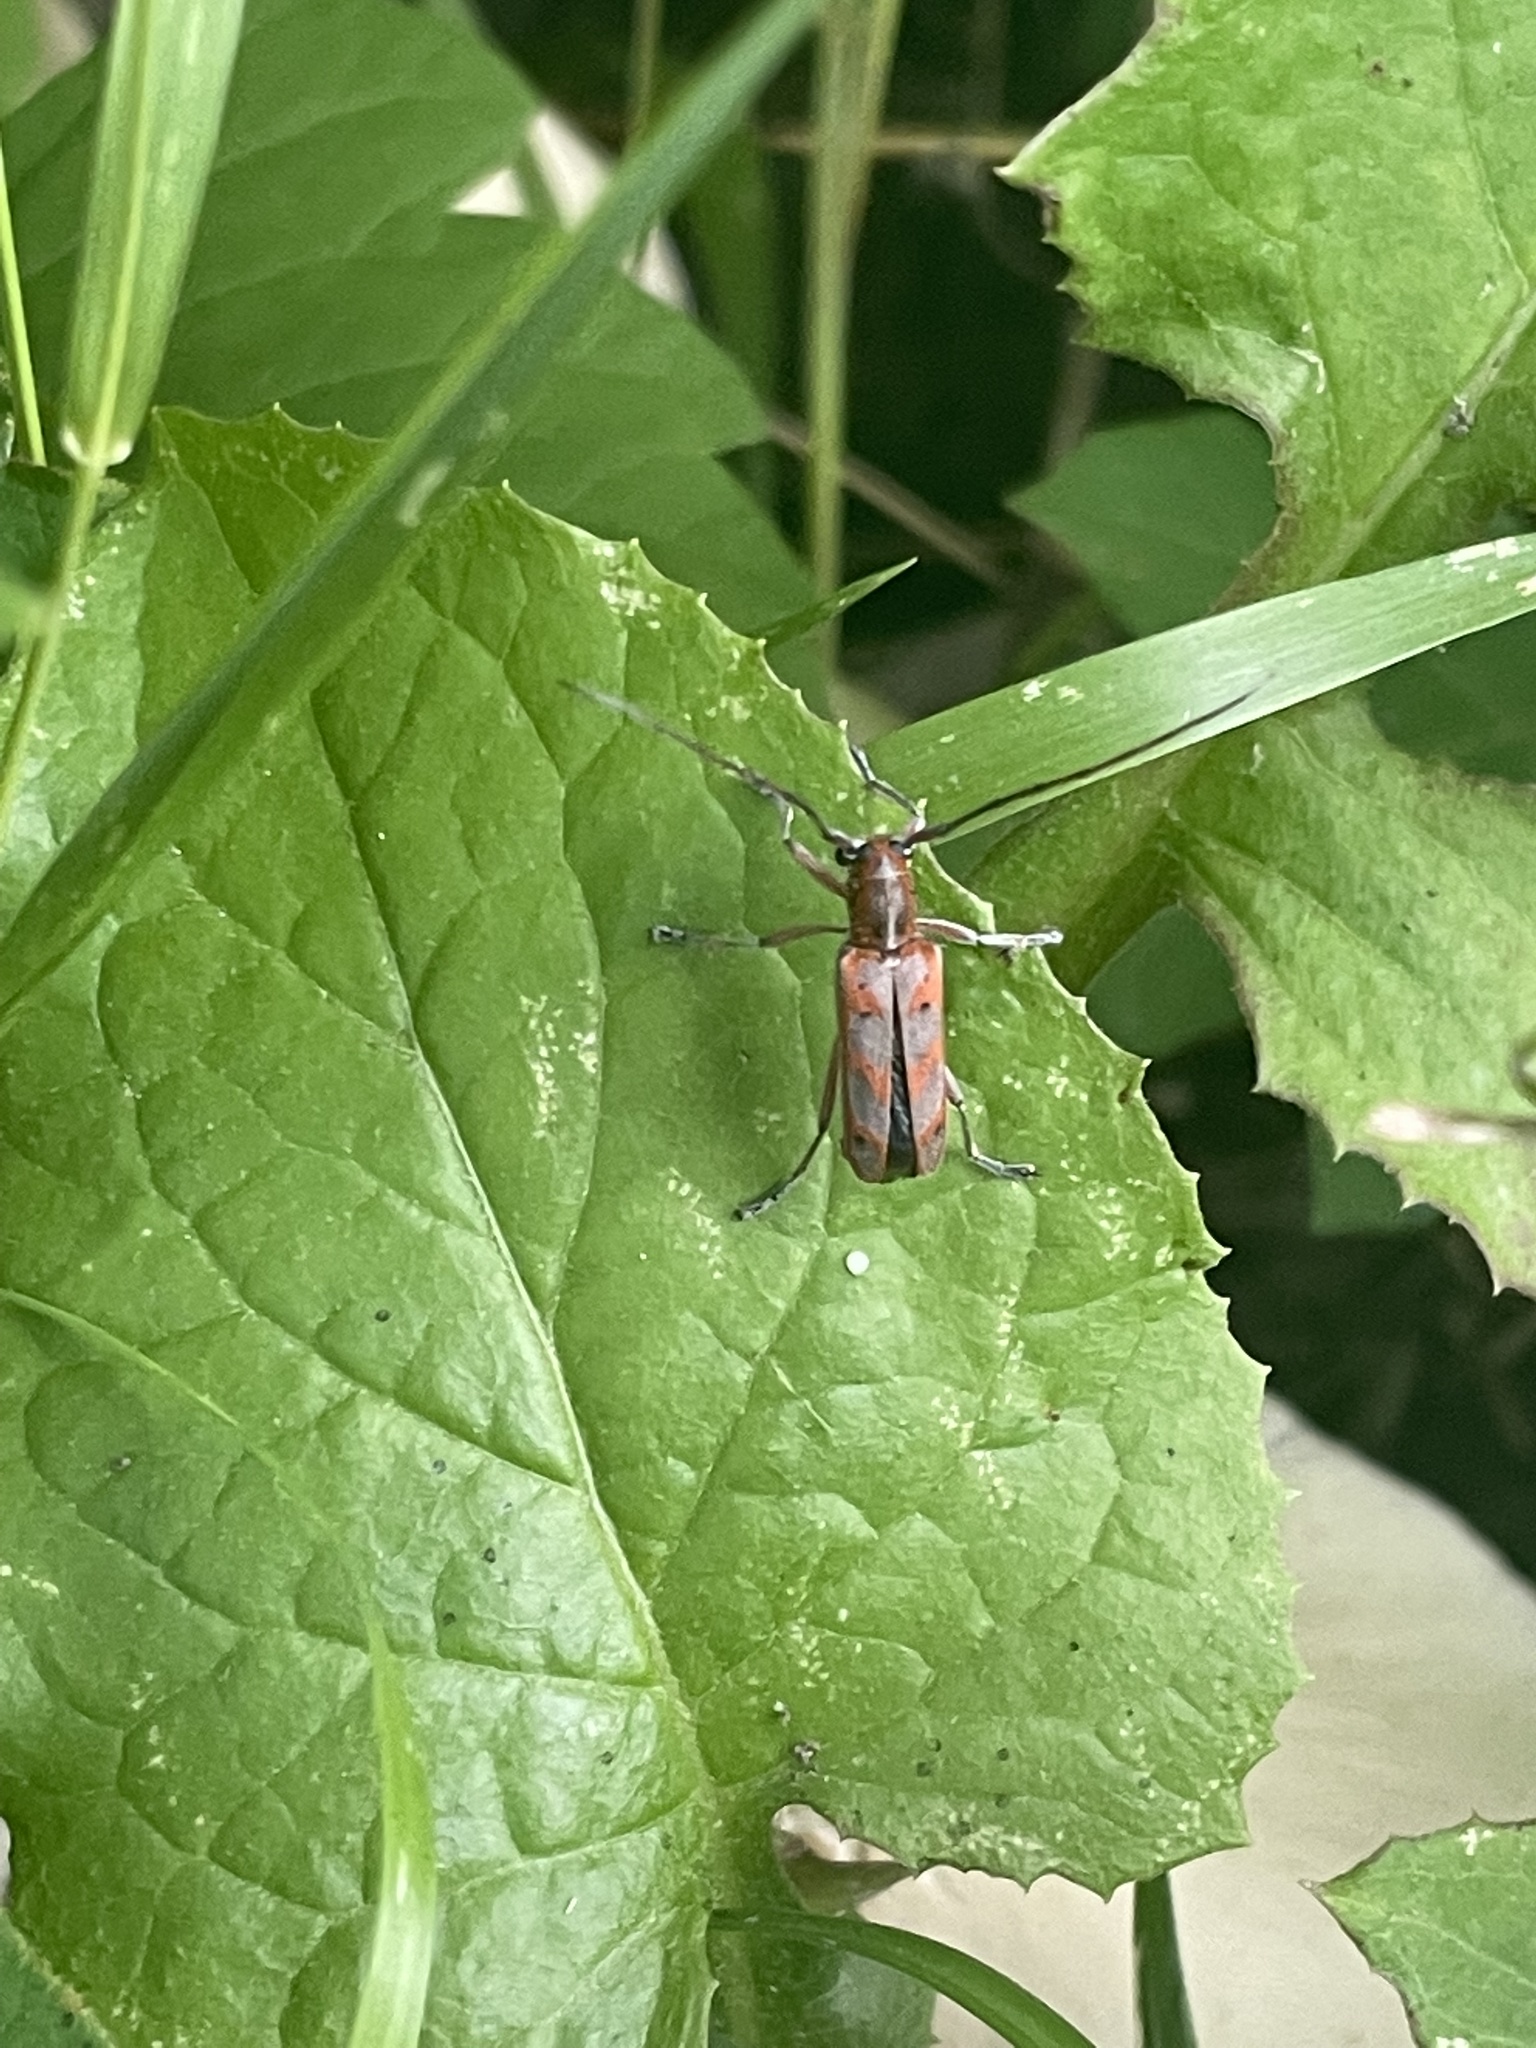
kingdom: Animalia
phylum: Arthropoda
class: Insecta
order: Coleoptera
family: Cerambycidae
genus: Saperda
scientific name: Saperda tridentata
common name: Elm borer
